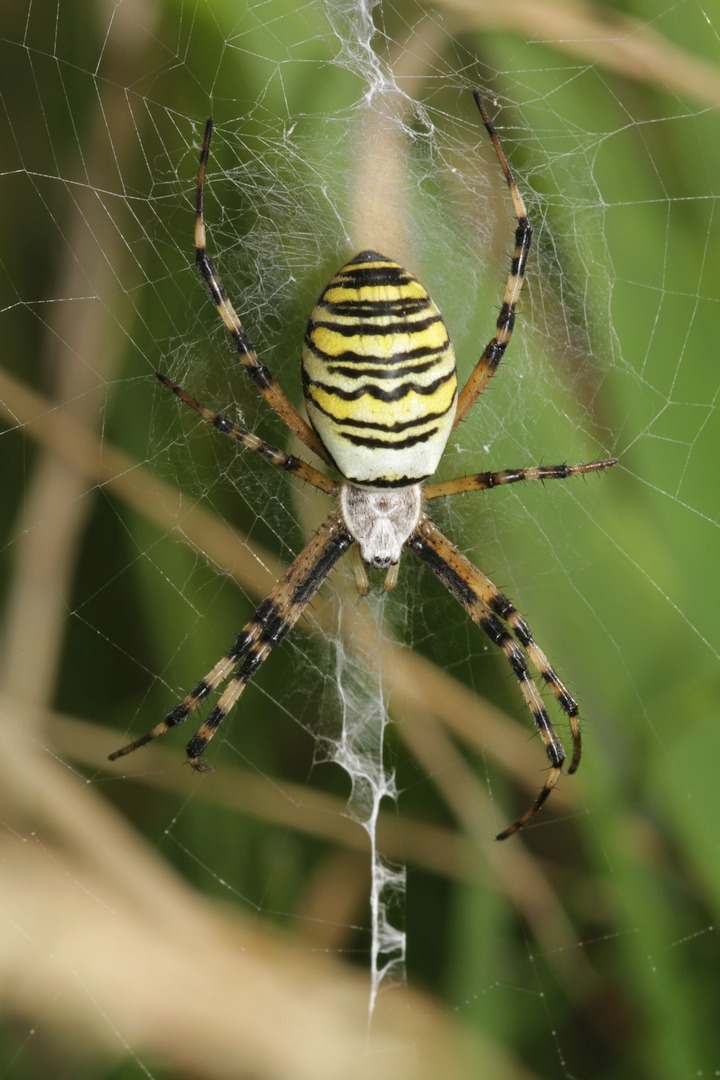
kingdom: Animalia
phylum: Arthropoda
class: Arachnida
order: Araneae
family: Araneidae
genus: Argiope
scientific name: Argiope bruennichi
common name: Wasp spider
